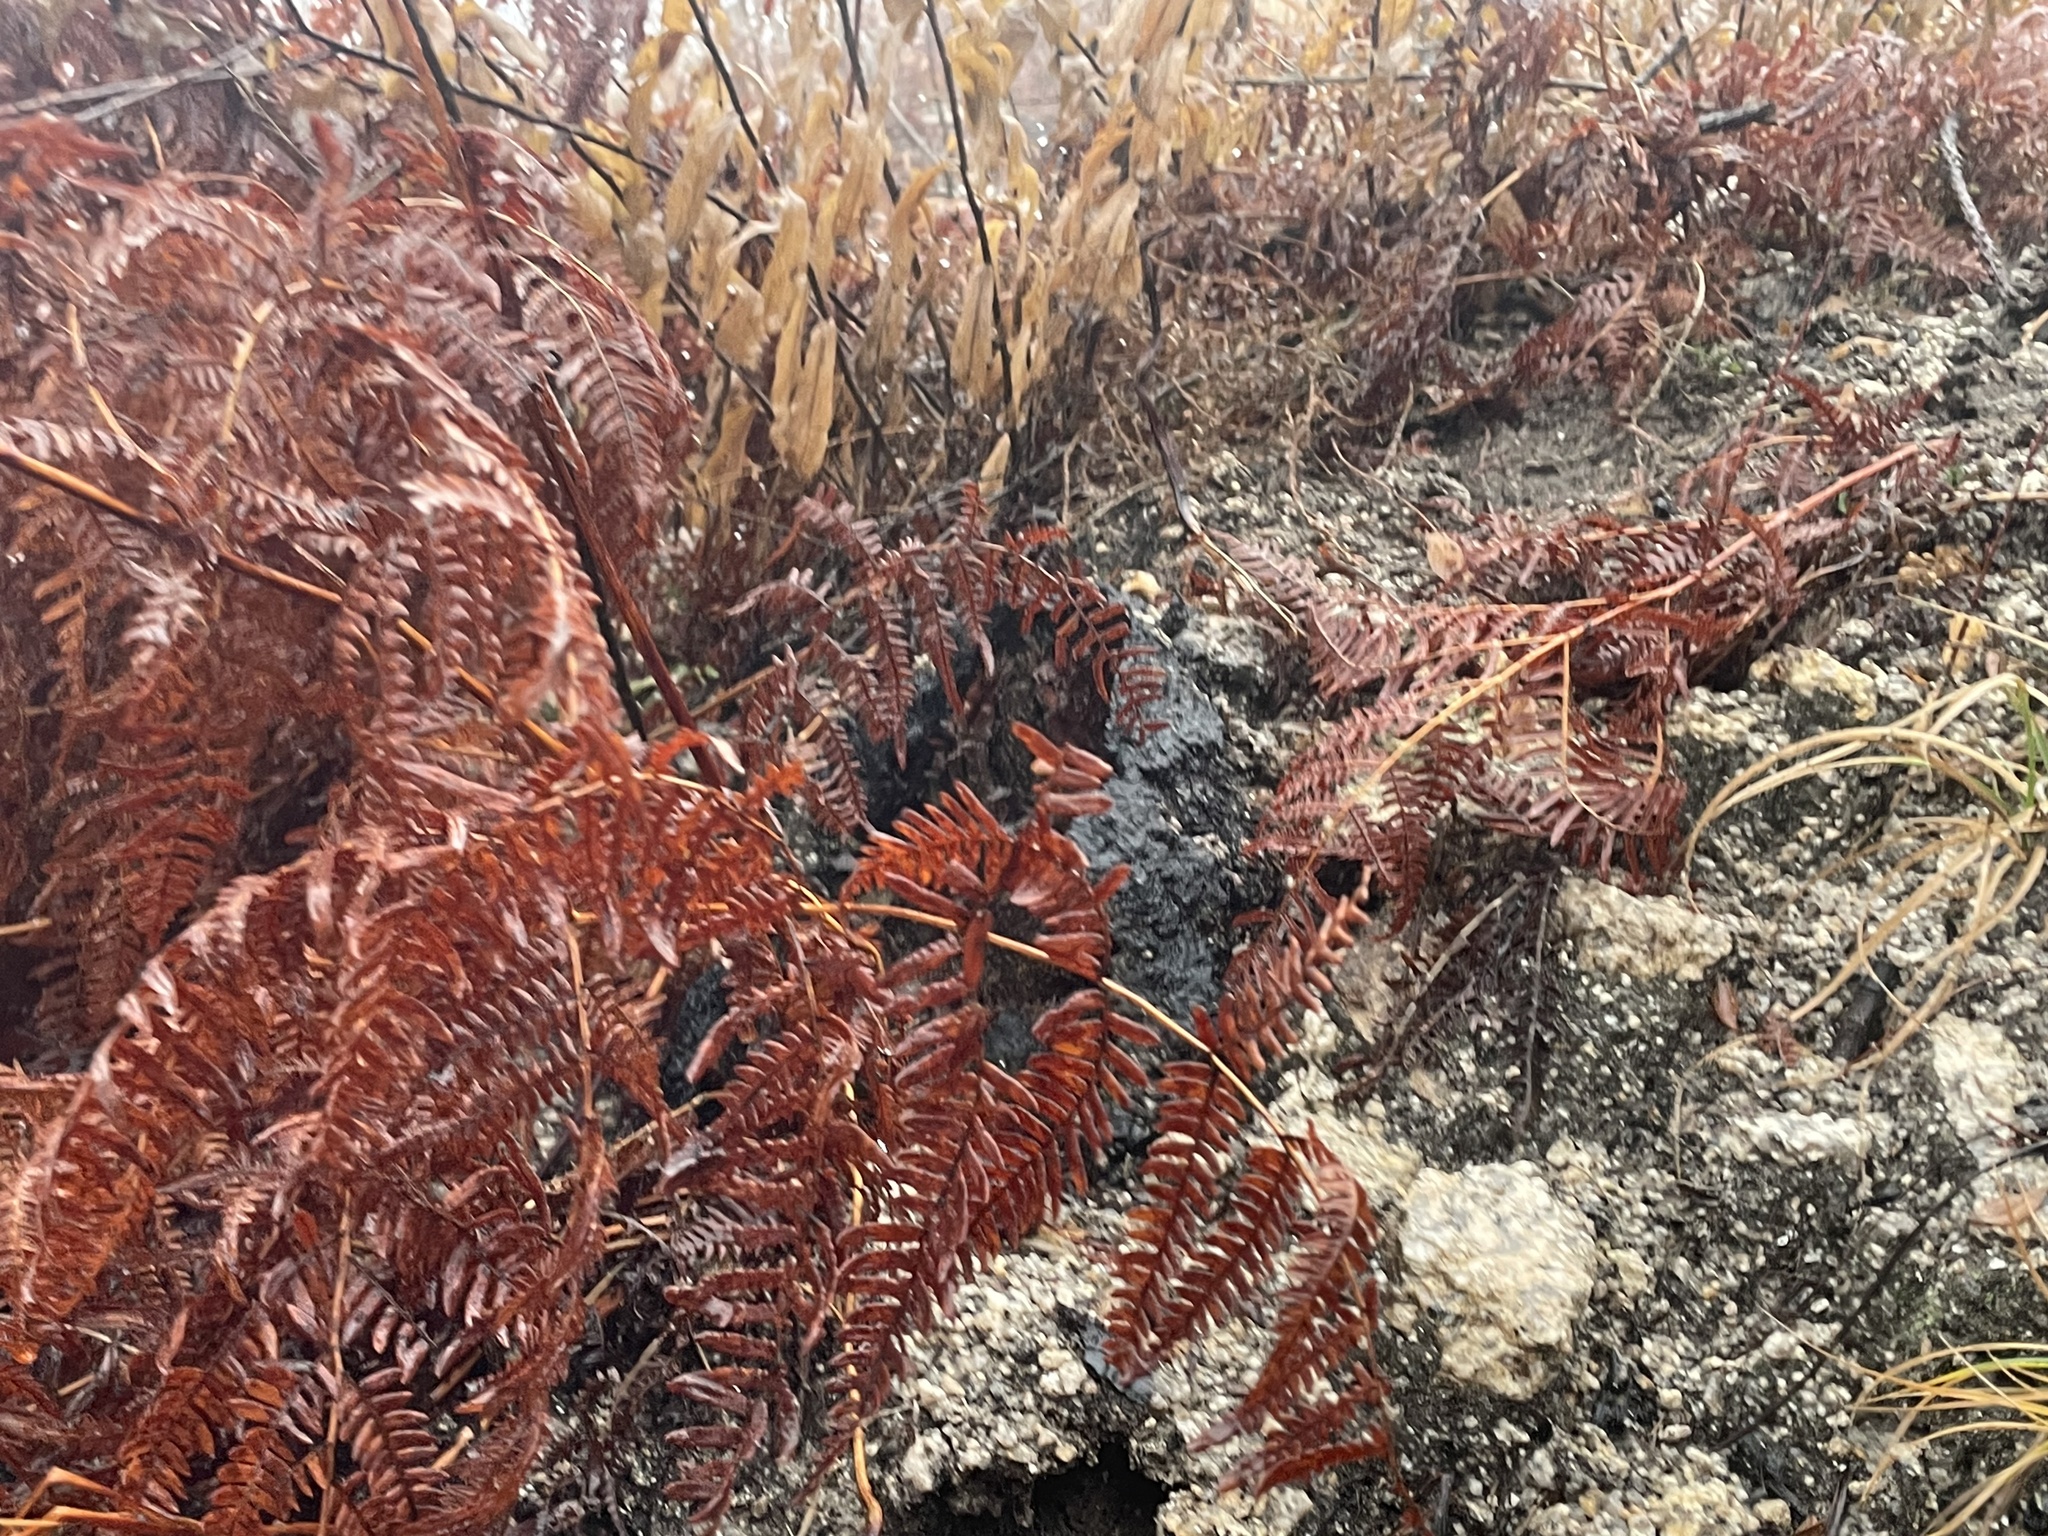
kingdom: Plantae
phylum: Tracheophyta
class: Polypodiopsida
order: Polypodiales
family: Dennstaedtiaceae
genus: Pteridium
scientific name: Pteridium aquilinum
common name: Bracken
